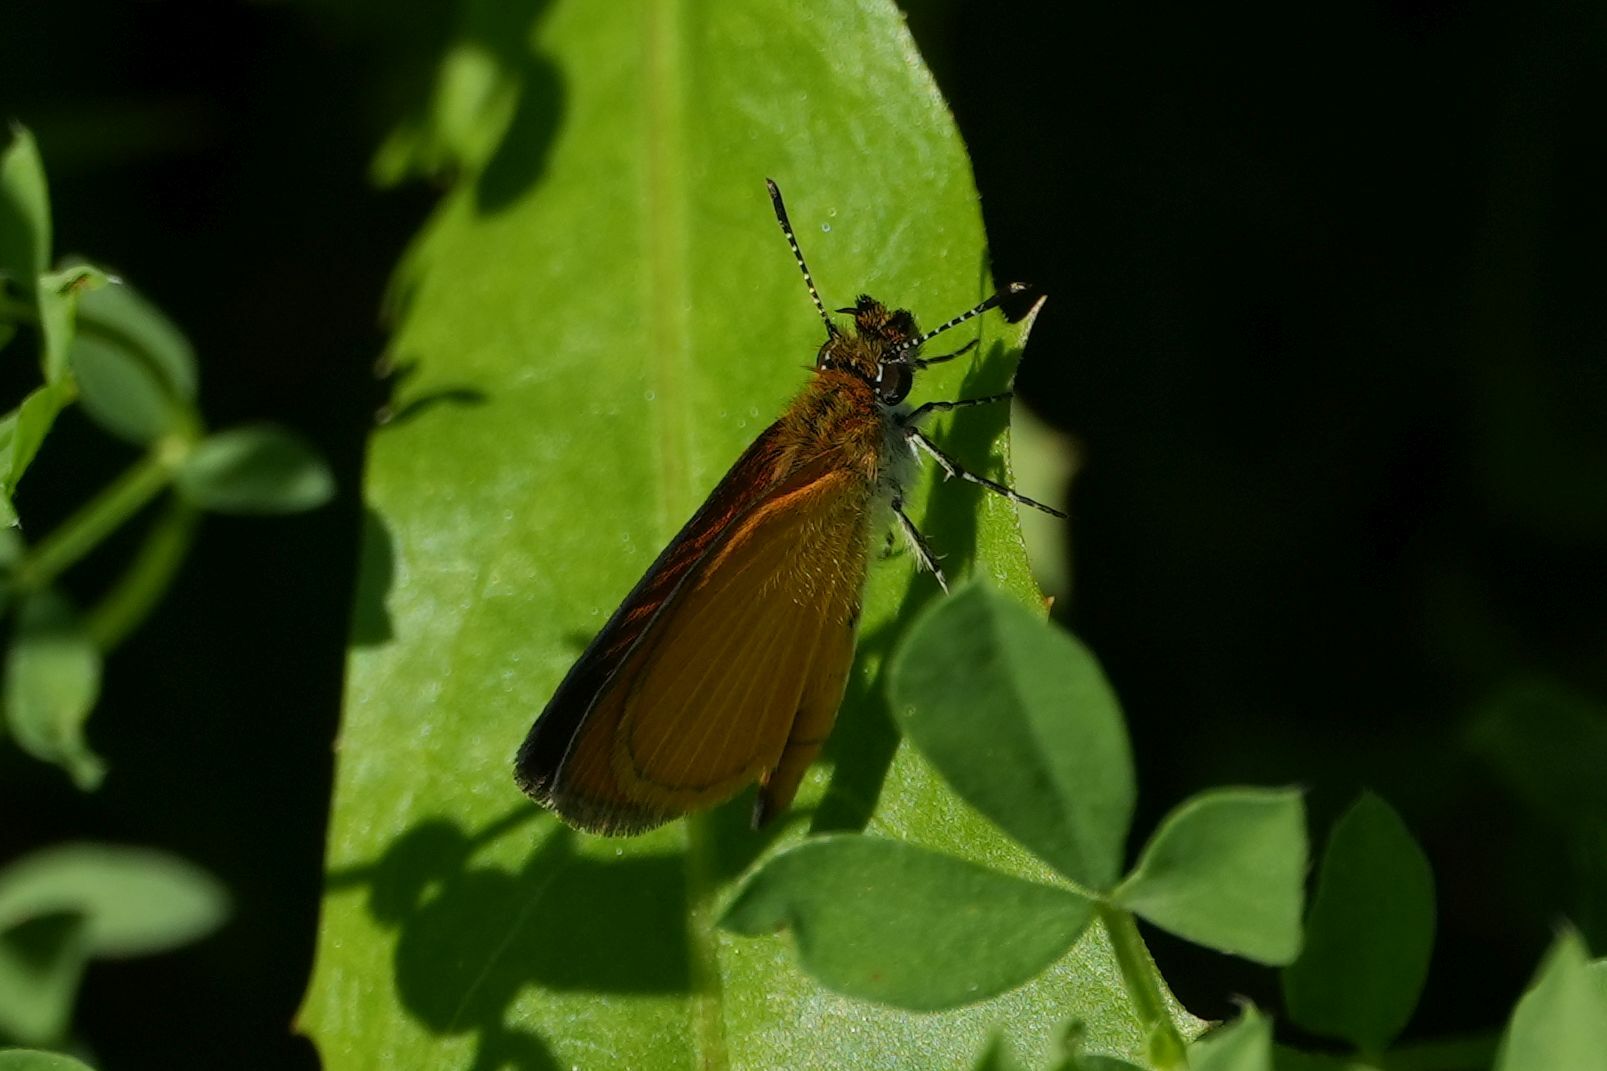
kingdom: Animalia
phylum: Arthropoda
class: Insecta
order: Lepidoptera
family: Hesperiidae
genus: Ancyloxypha
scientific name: Ancyloxypha numitor
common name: Least skipper
